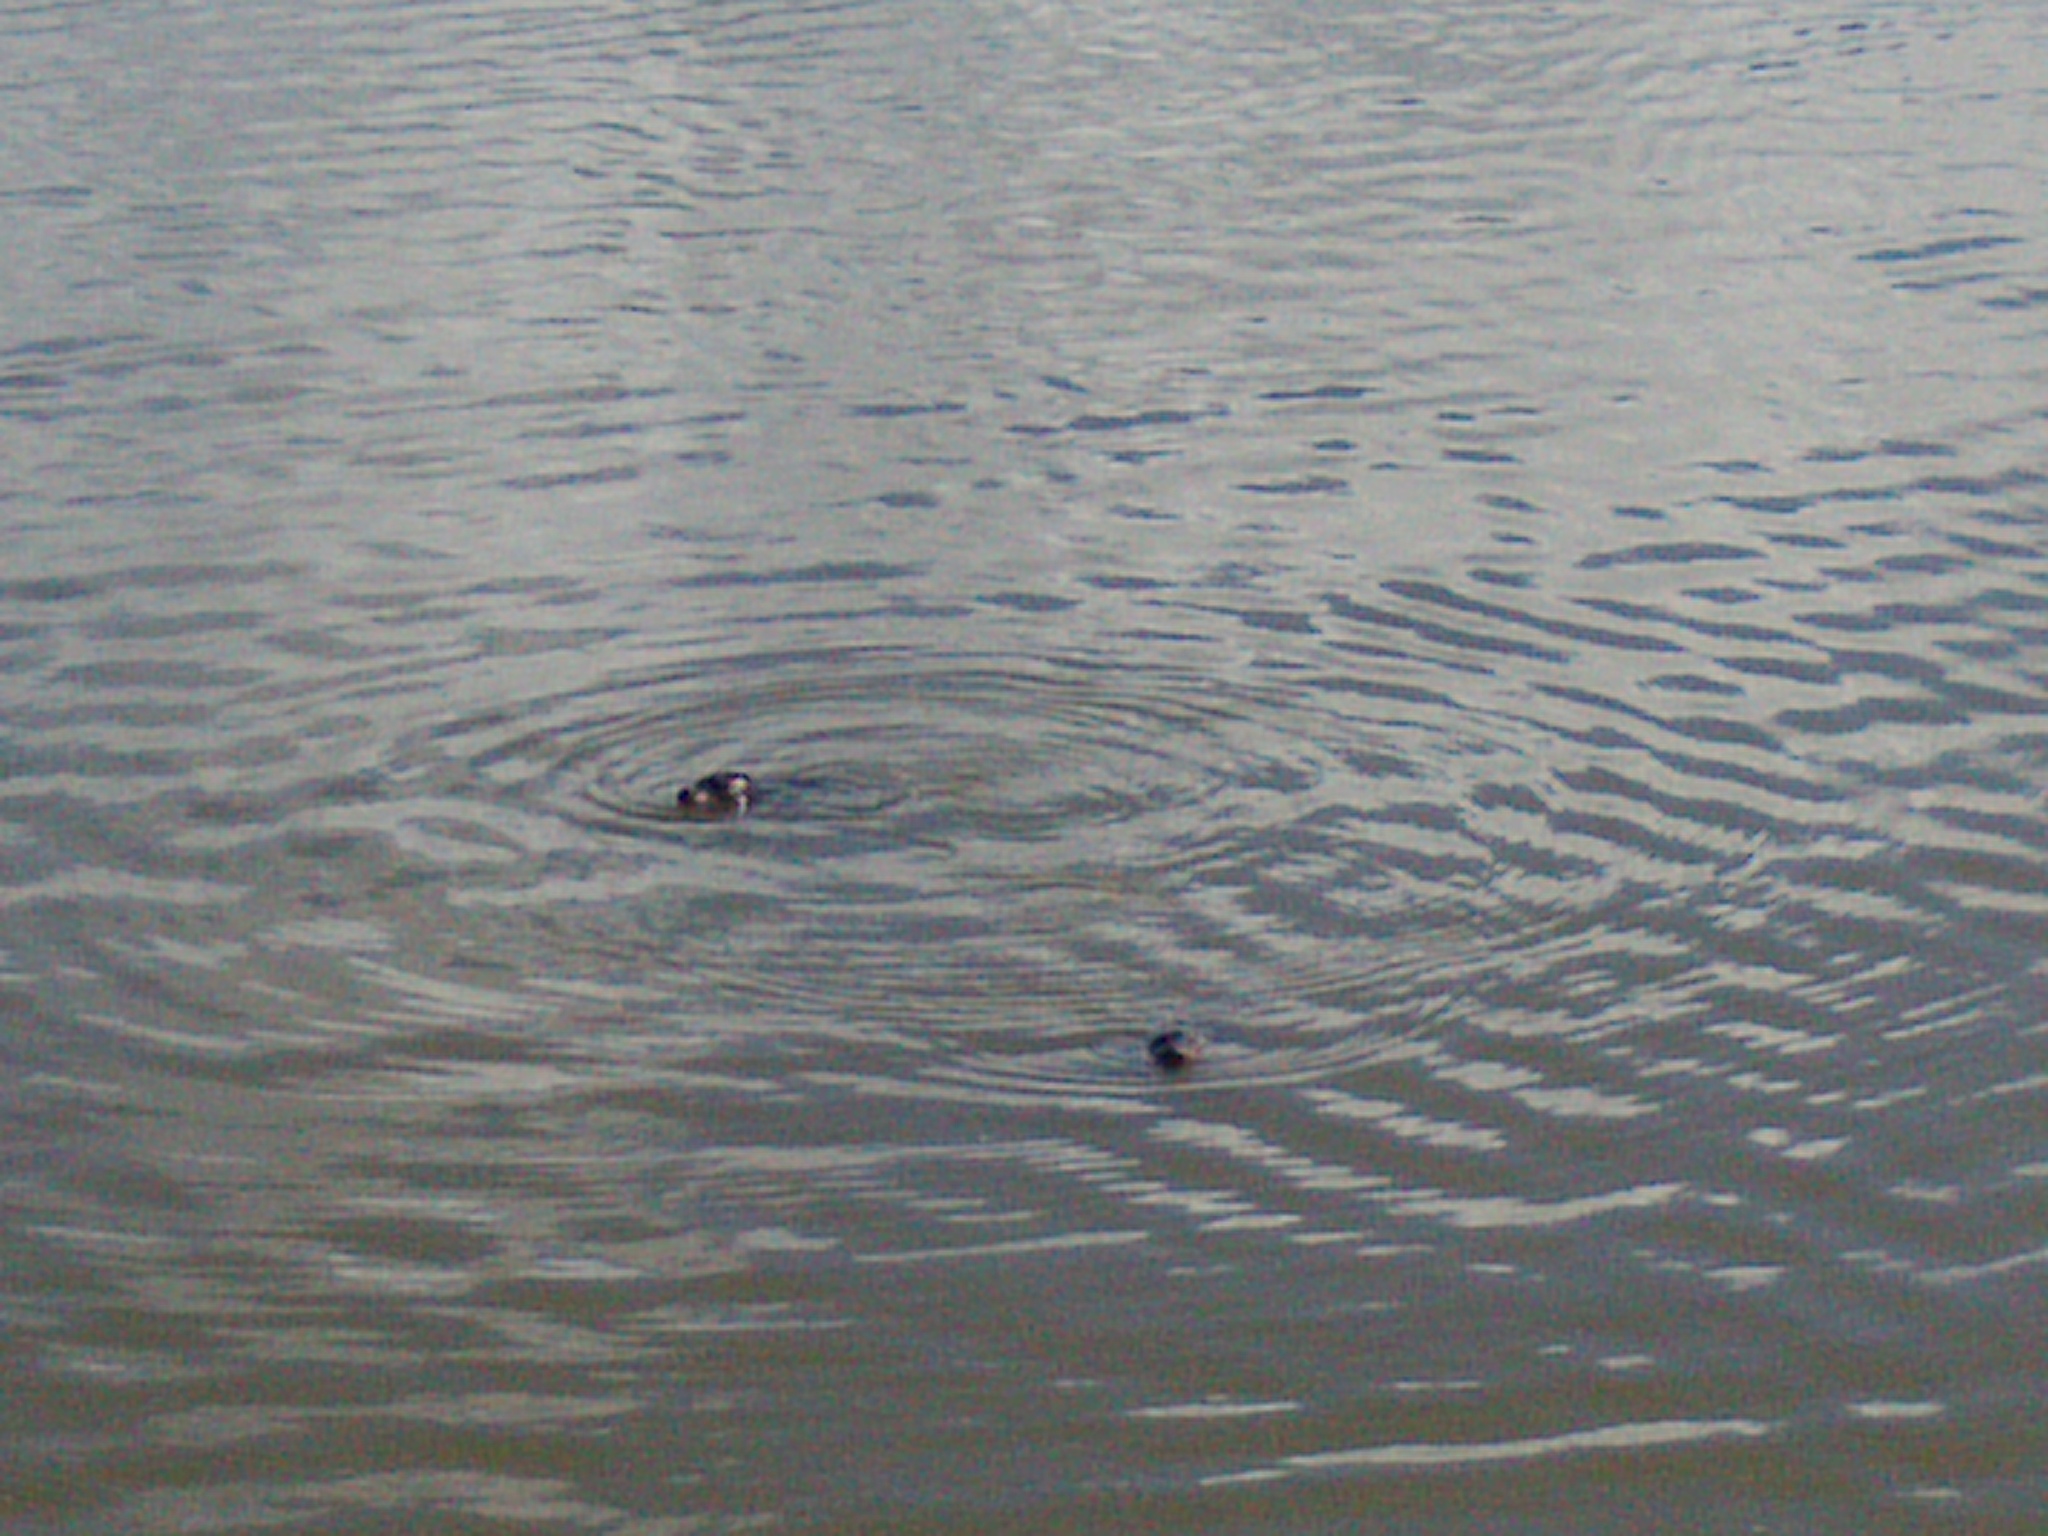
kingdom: Animalia
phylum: Chordata
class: Mammalia
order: Carnivora
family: Phocidae
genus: Phoca
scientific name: Phoca vitulina
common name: Harbor seal
